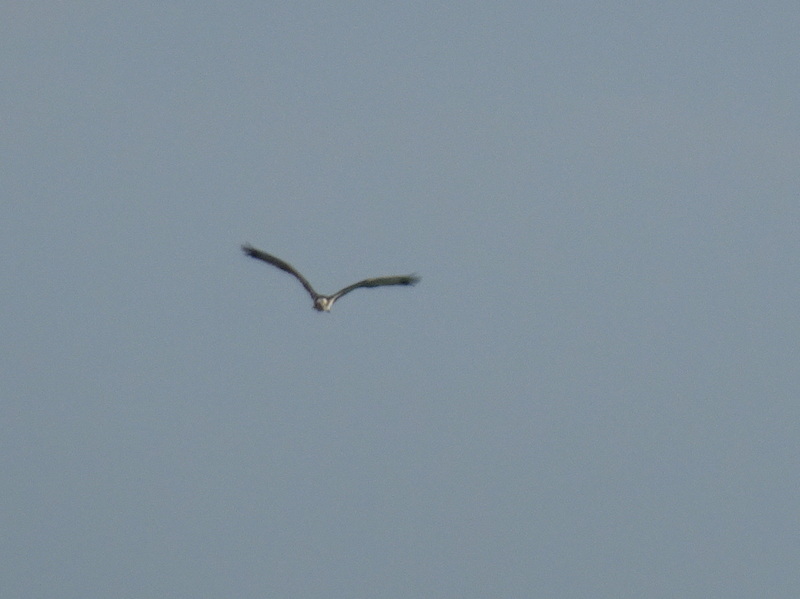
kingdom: Animalia
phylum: Chordata
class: Aves
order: Accipitriformes
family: Pandionidae
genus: Pandion
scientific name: Pandion haliaetus
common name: Osprey
